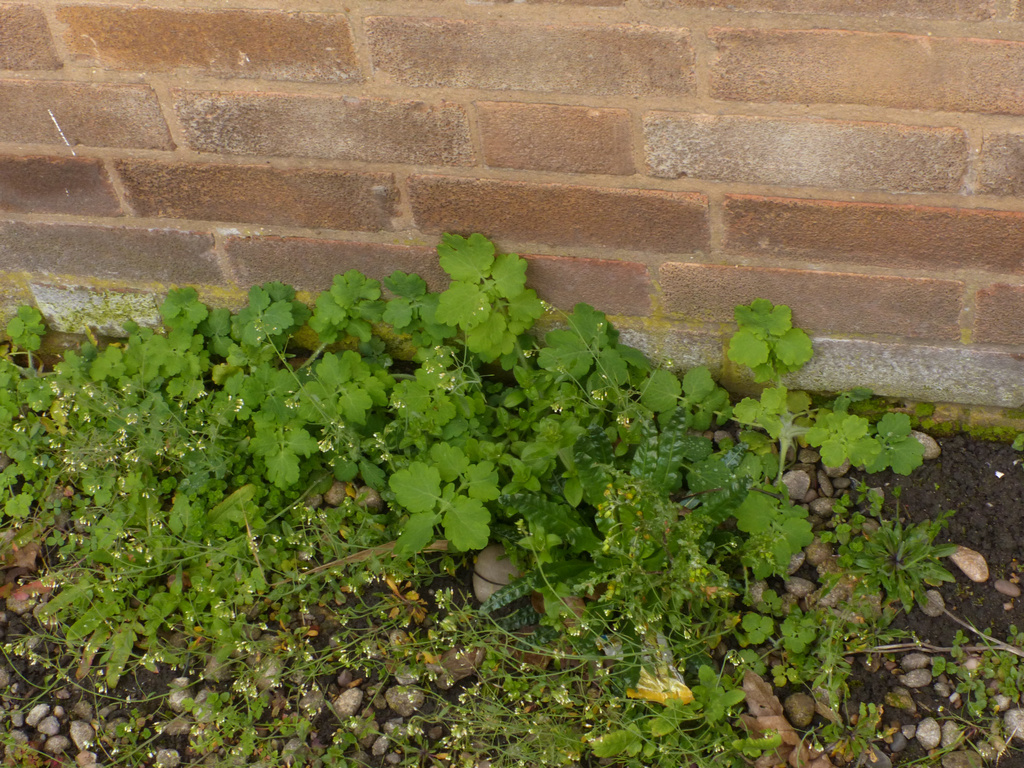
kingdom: Plantae
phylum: Tracheophyta
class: Magnoliopsida
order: Ranunculales
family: Papaveraceae
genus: Chelidonium
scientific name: Chelidonium majus
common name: Greater celandine
